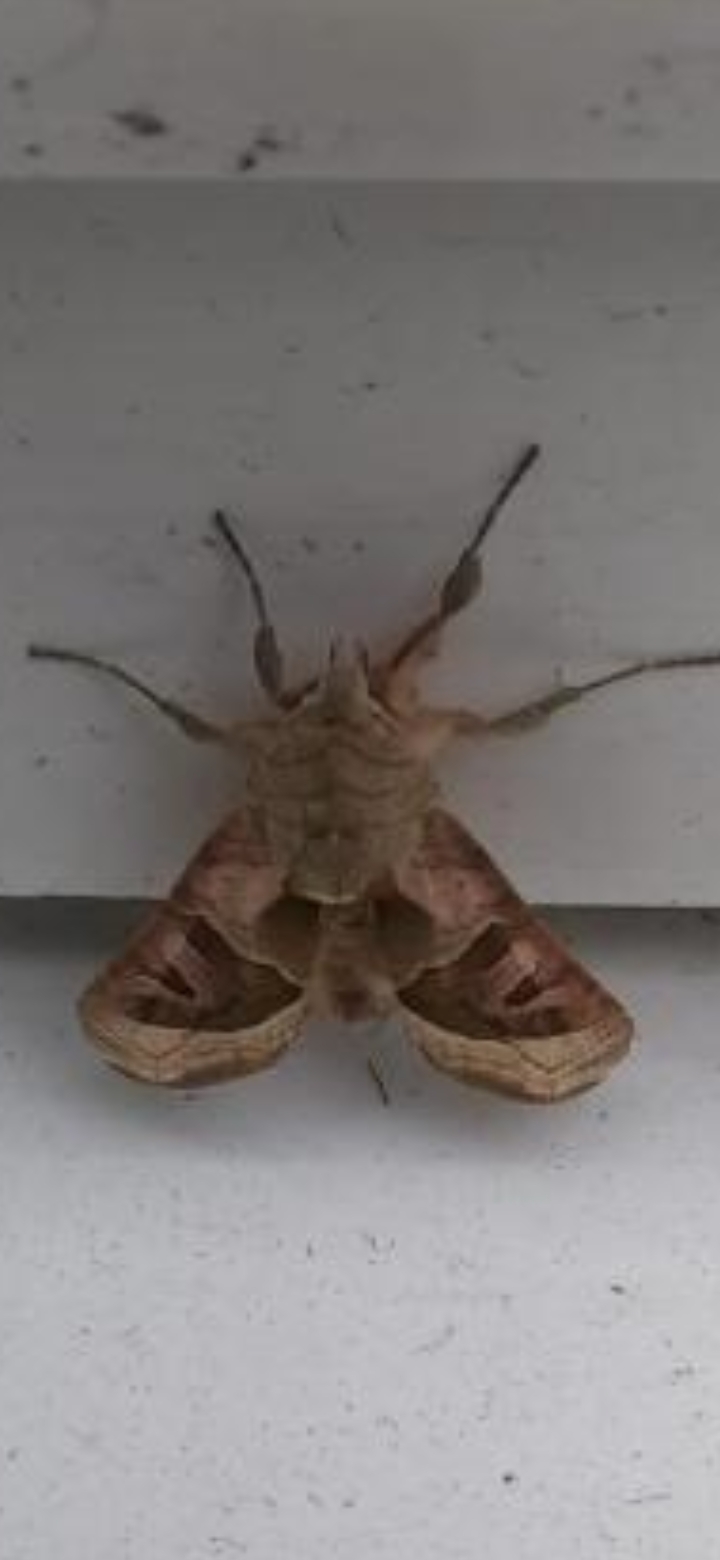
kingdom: Animalia
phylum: Arthropoda
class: Insecta
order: Lepidoptera
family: Noctuidae
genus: Phlogophora
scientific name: Phlogophora meticulosa
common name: Angle shades
